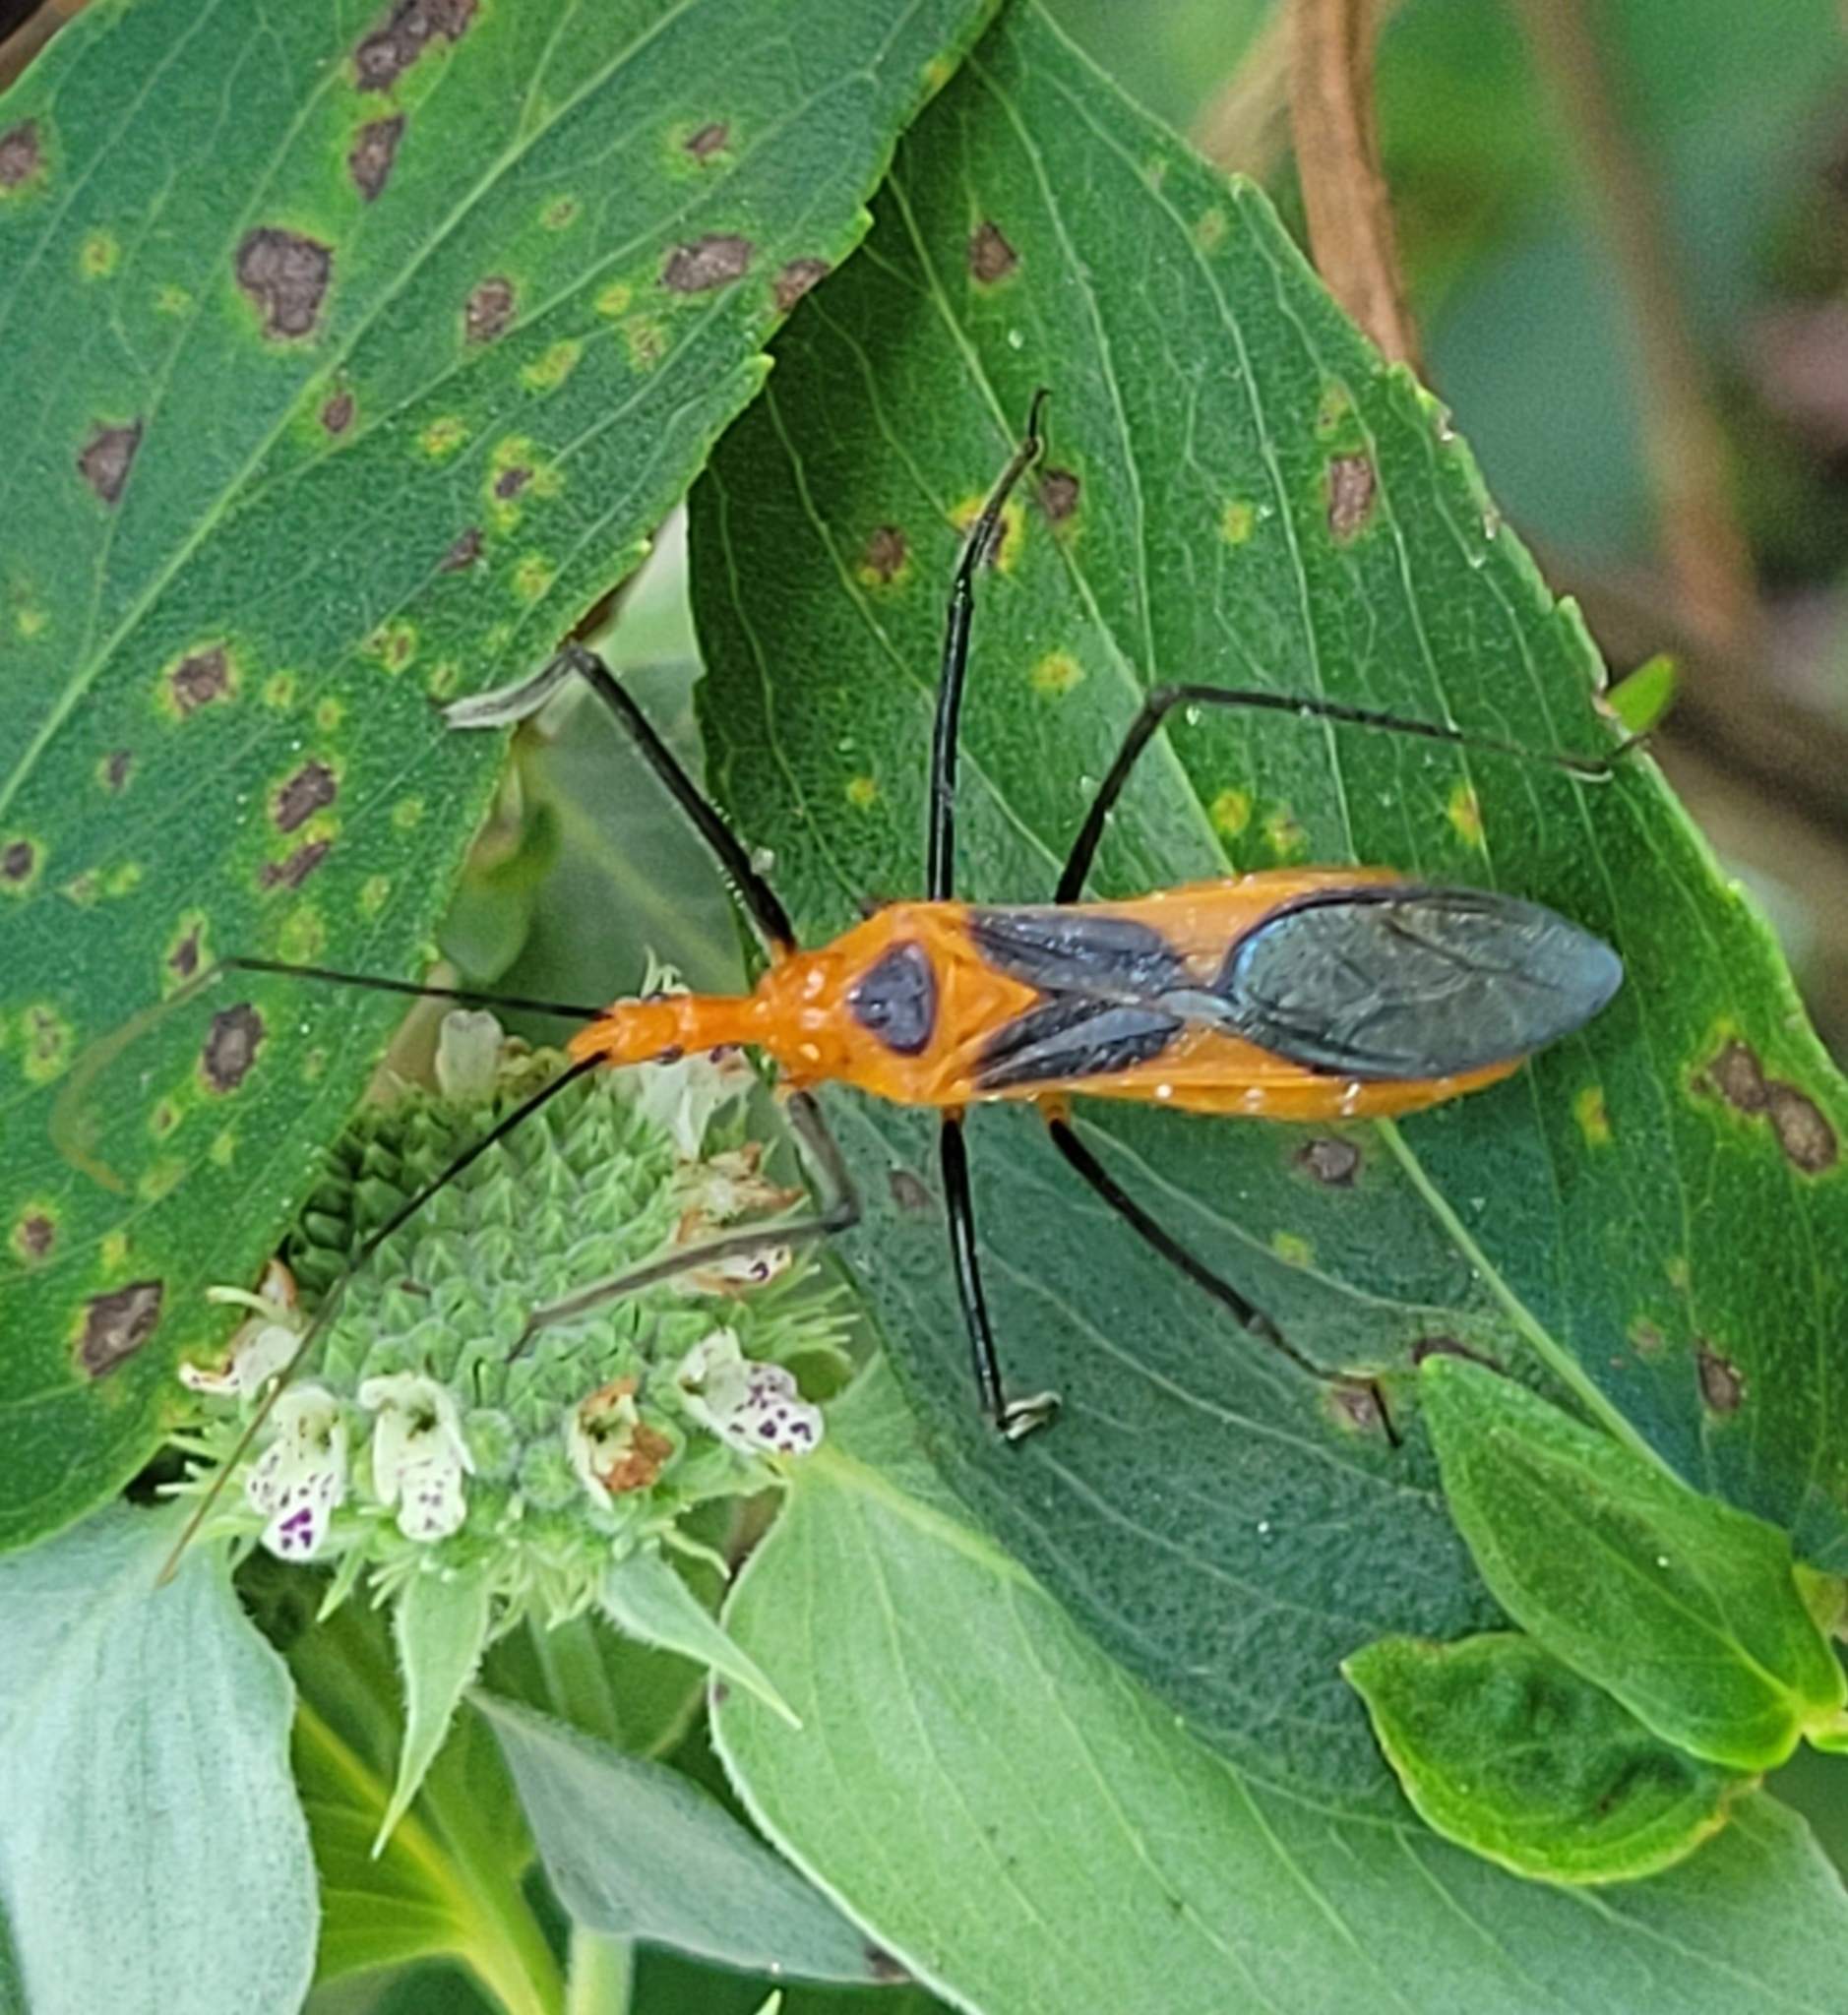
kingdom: Animalia
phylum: Arthropoda
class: Insecta
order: Hemiptera
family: Reduviidae
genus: Zelus
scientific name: Zelus longipes
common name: Milkweed assassin bug
